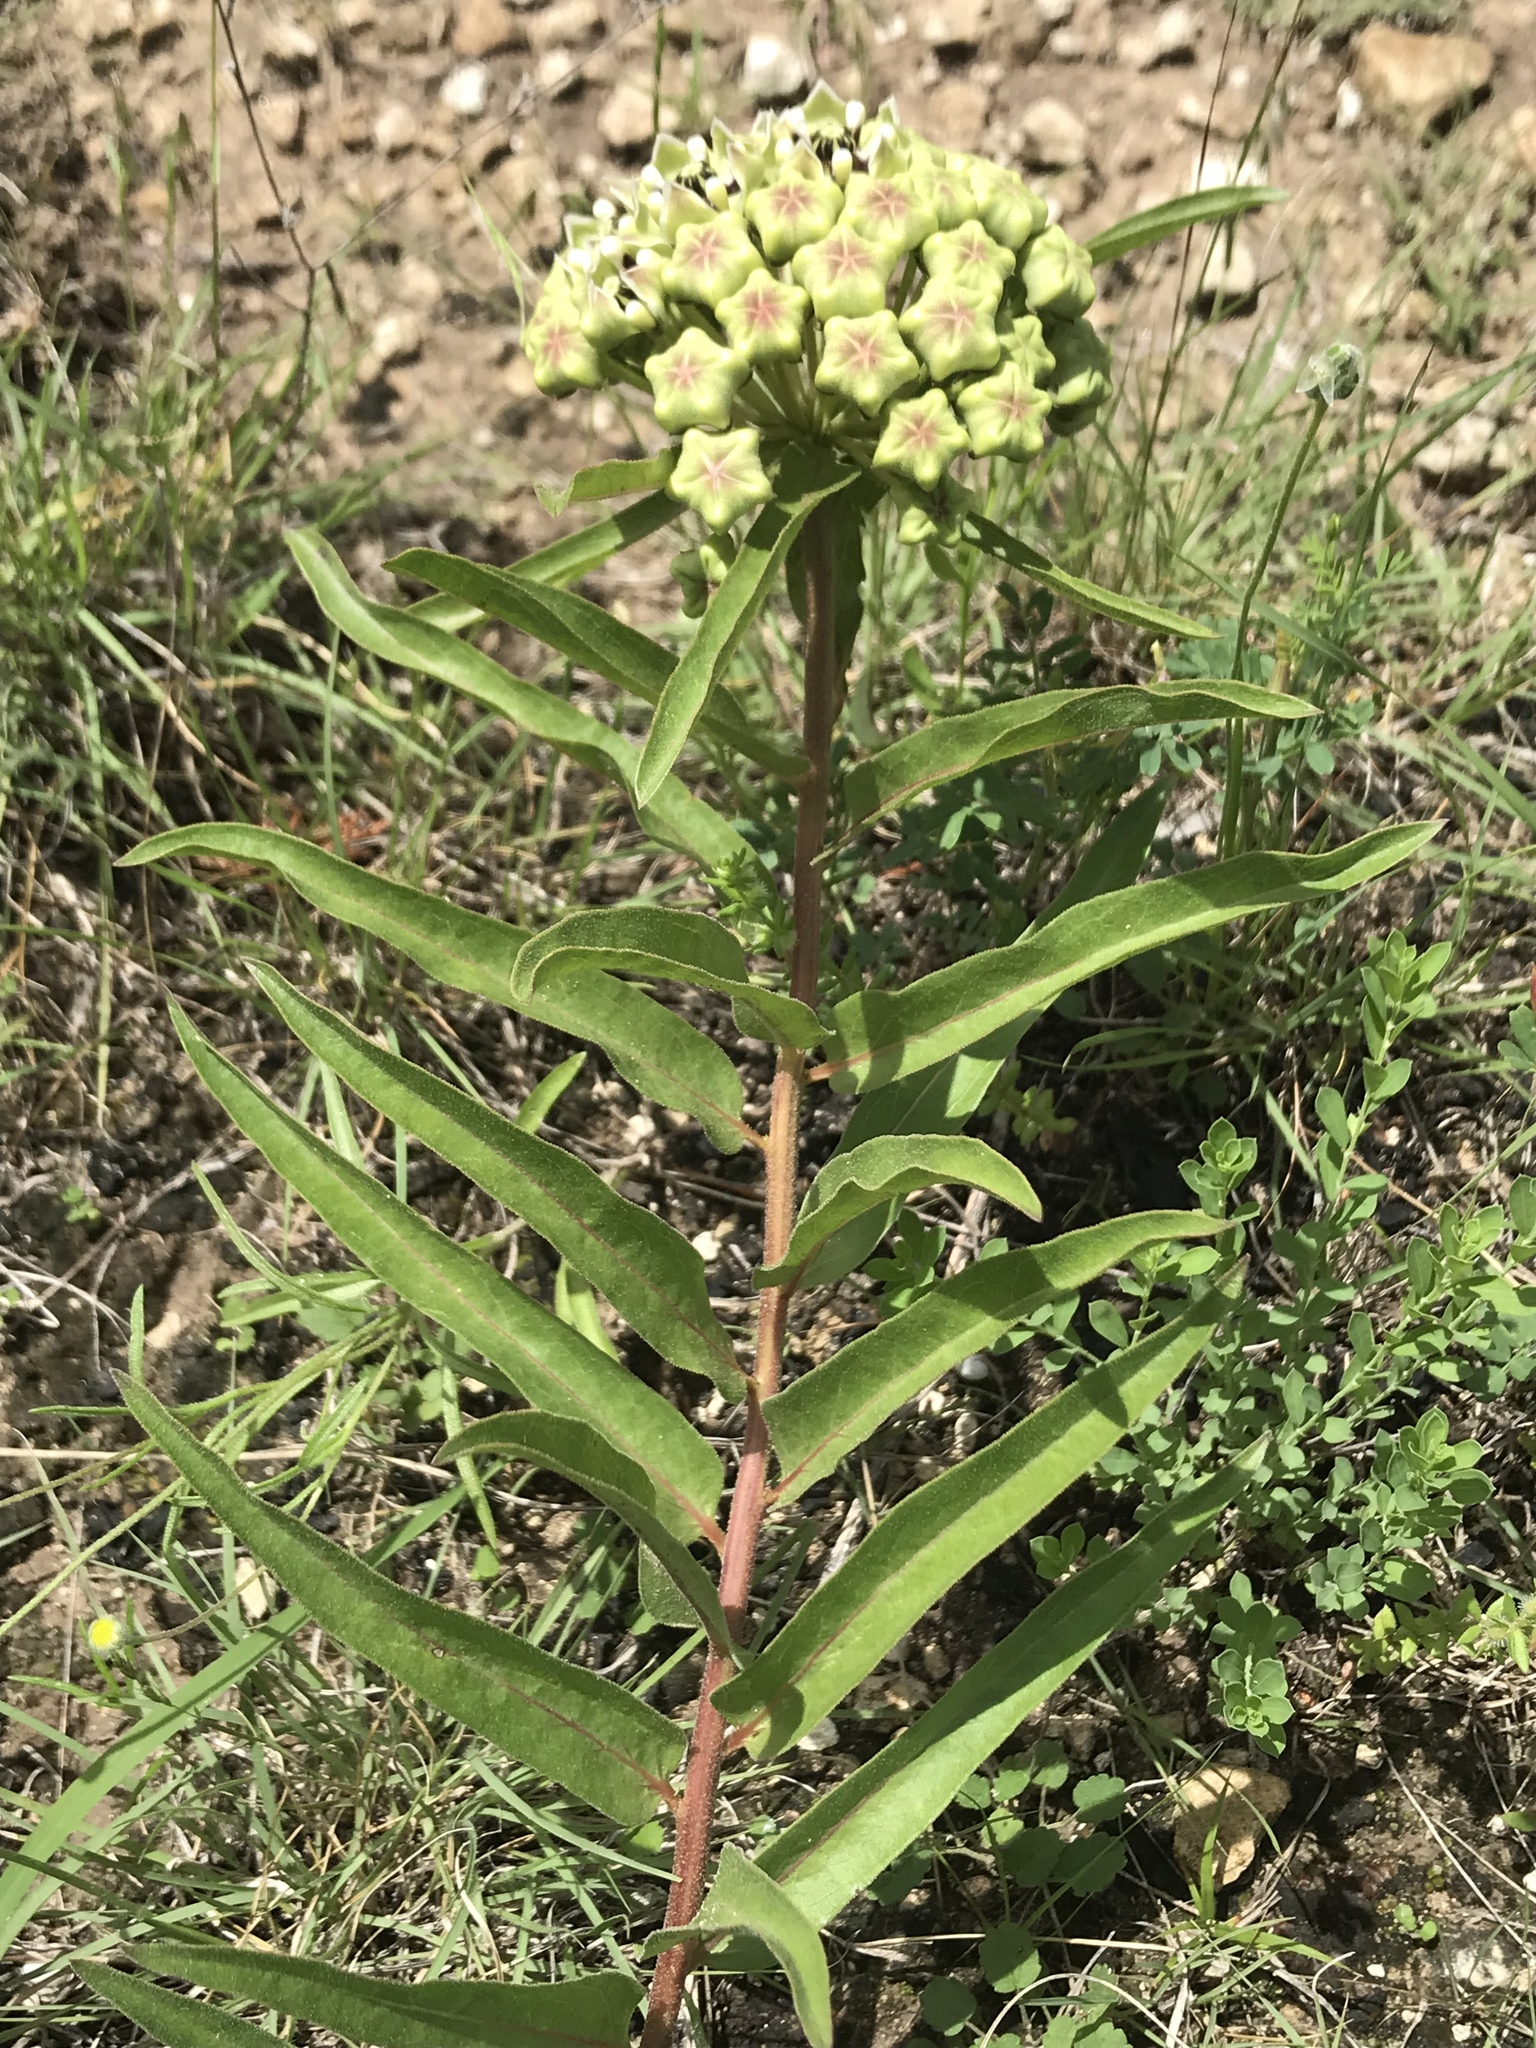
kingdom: Plantae
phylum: Tracheophyta
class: Magnoliopsida
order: Gentianales
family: Apocynaceae
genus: Asclepias
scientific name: Asclepias asperula
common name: Antelope horns
